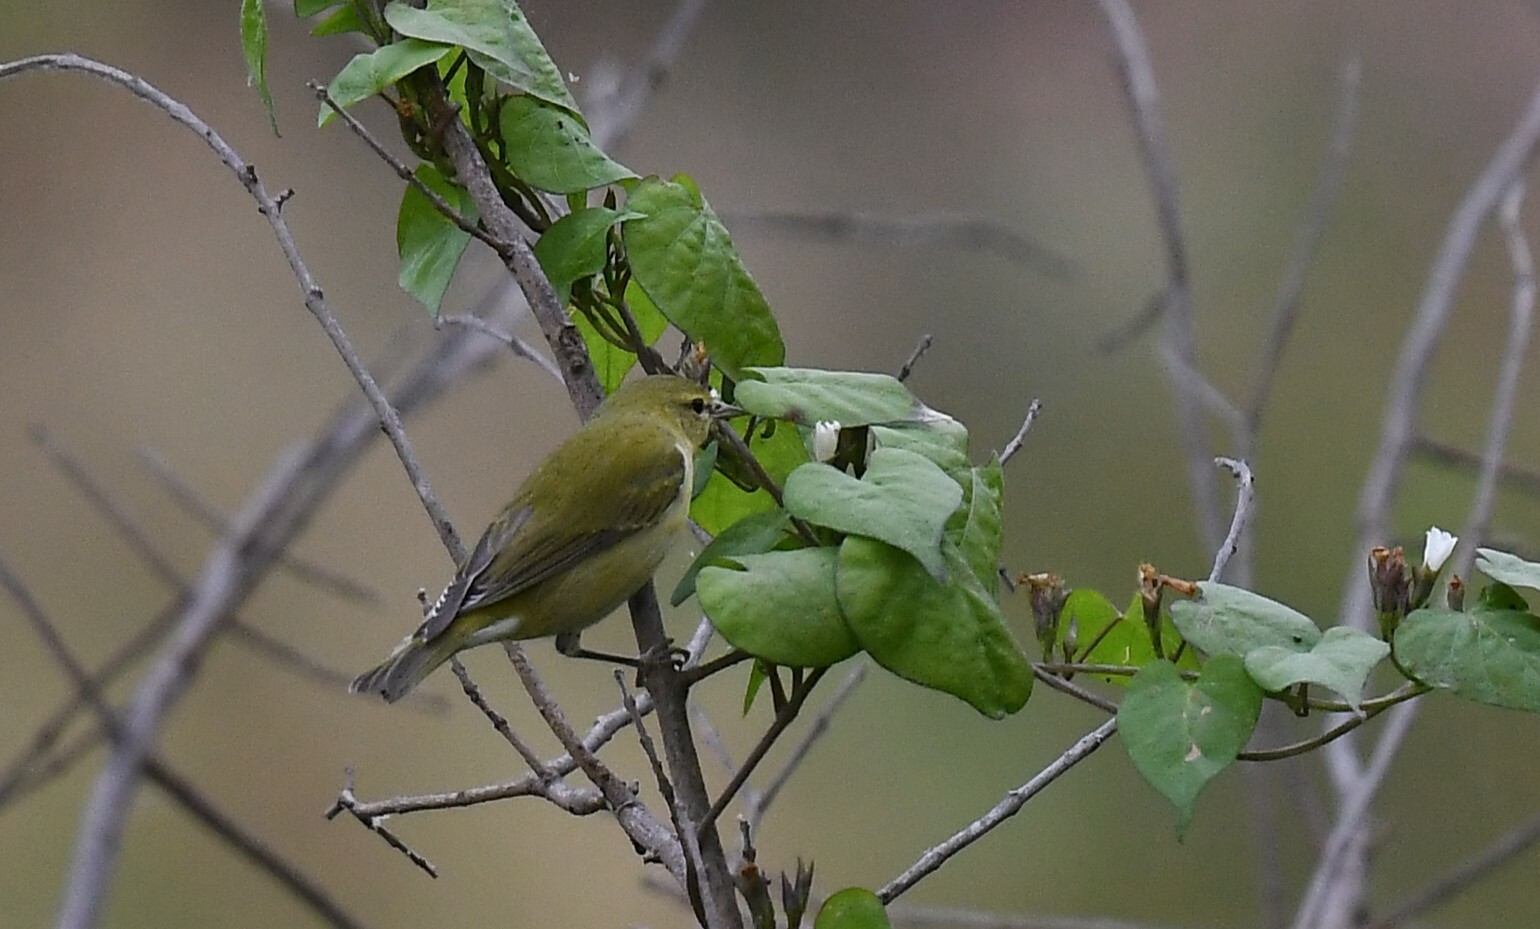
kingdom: Animalia
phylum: Chordata
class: Aves
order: Passeriformes
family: Parulidae
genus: Leiothlypis
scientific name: Leiothlypis peregrina
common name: Tennessee warbler
